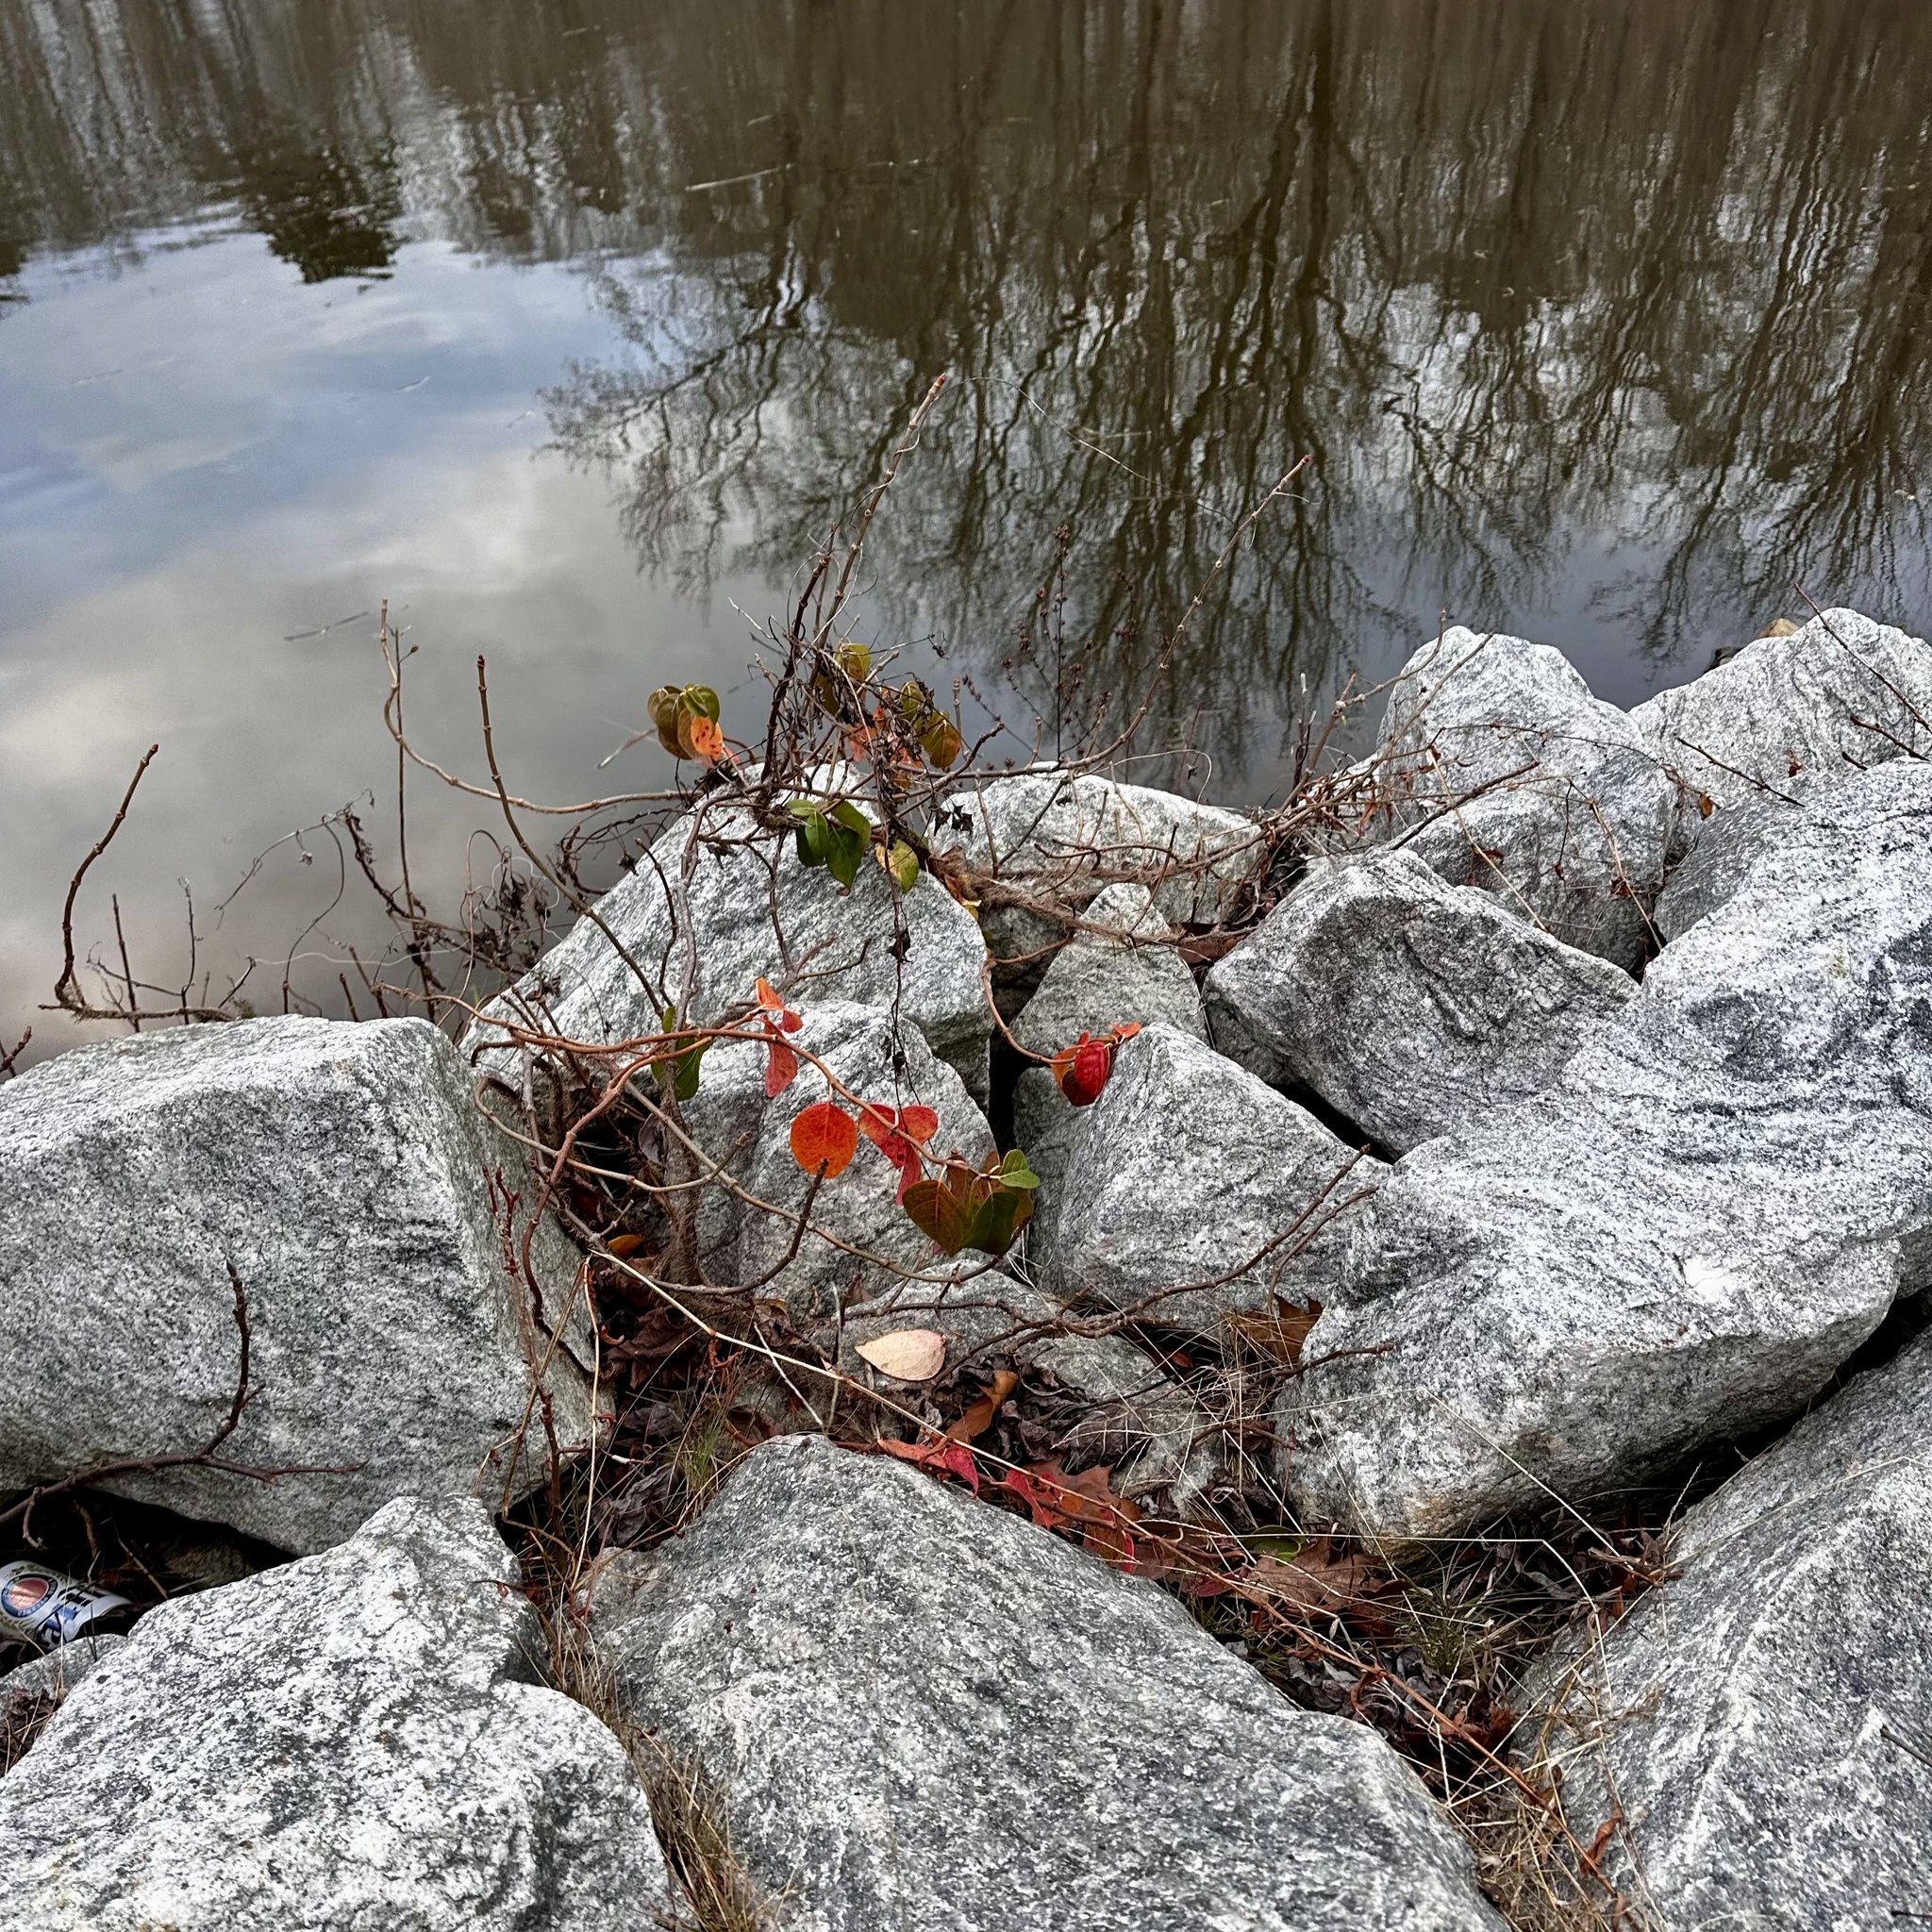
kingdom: Plantae
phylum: Tracheophyta
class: Magnoliopsida
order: Caryophyllales
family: Polygonaceae
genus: Persicaria
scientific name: Persicaria sagittata
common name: American tearthumb
